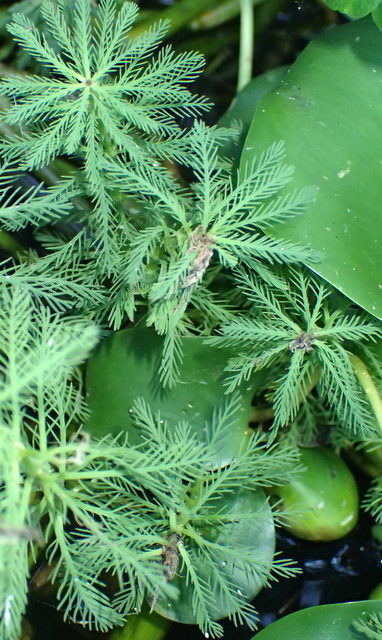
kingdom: Plantae
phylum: Tracheophyta
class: Magnoliopsida
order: Saxifragales
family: Haloragaceae
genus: Myriophyllum
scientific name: Myriophyllum aquaticum
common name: Parrot's feather
